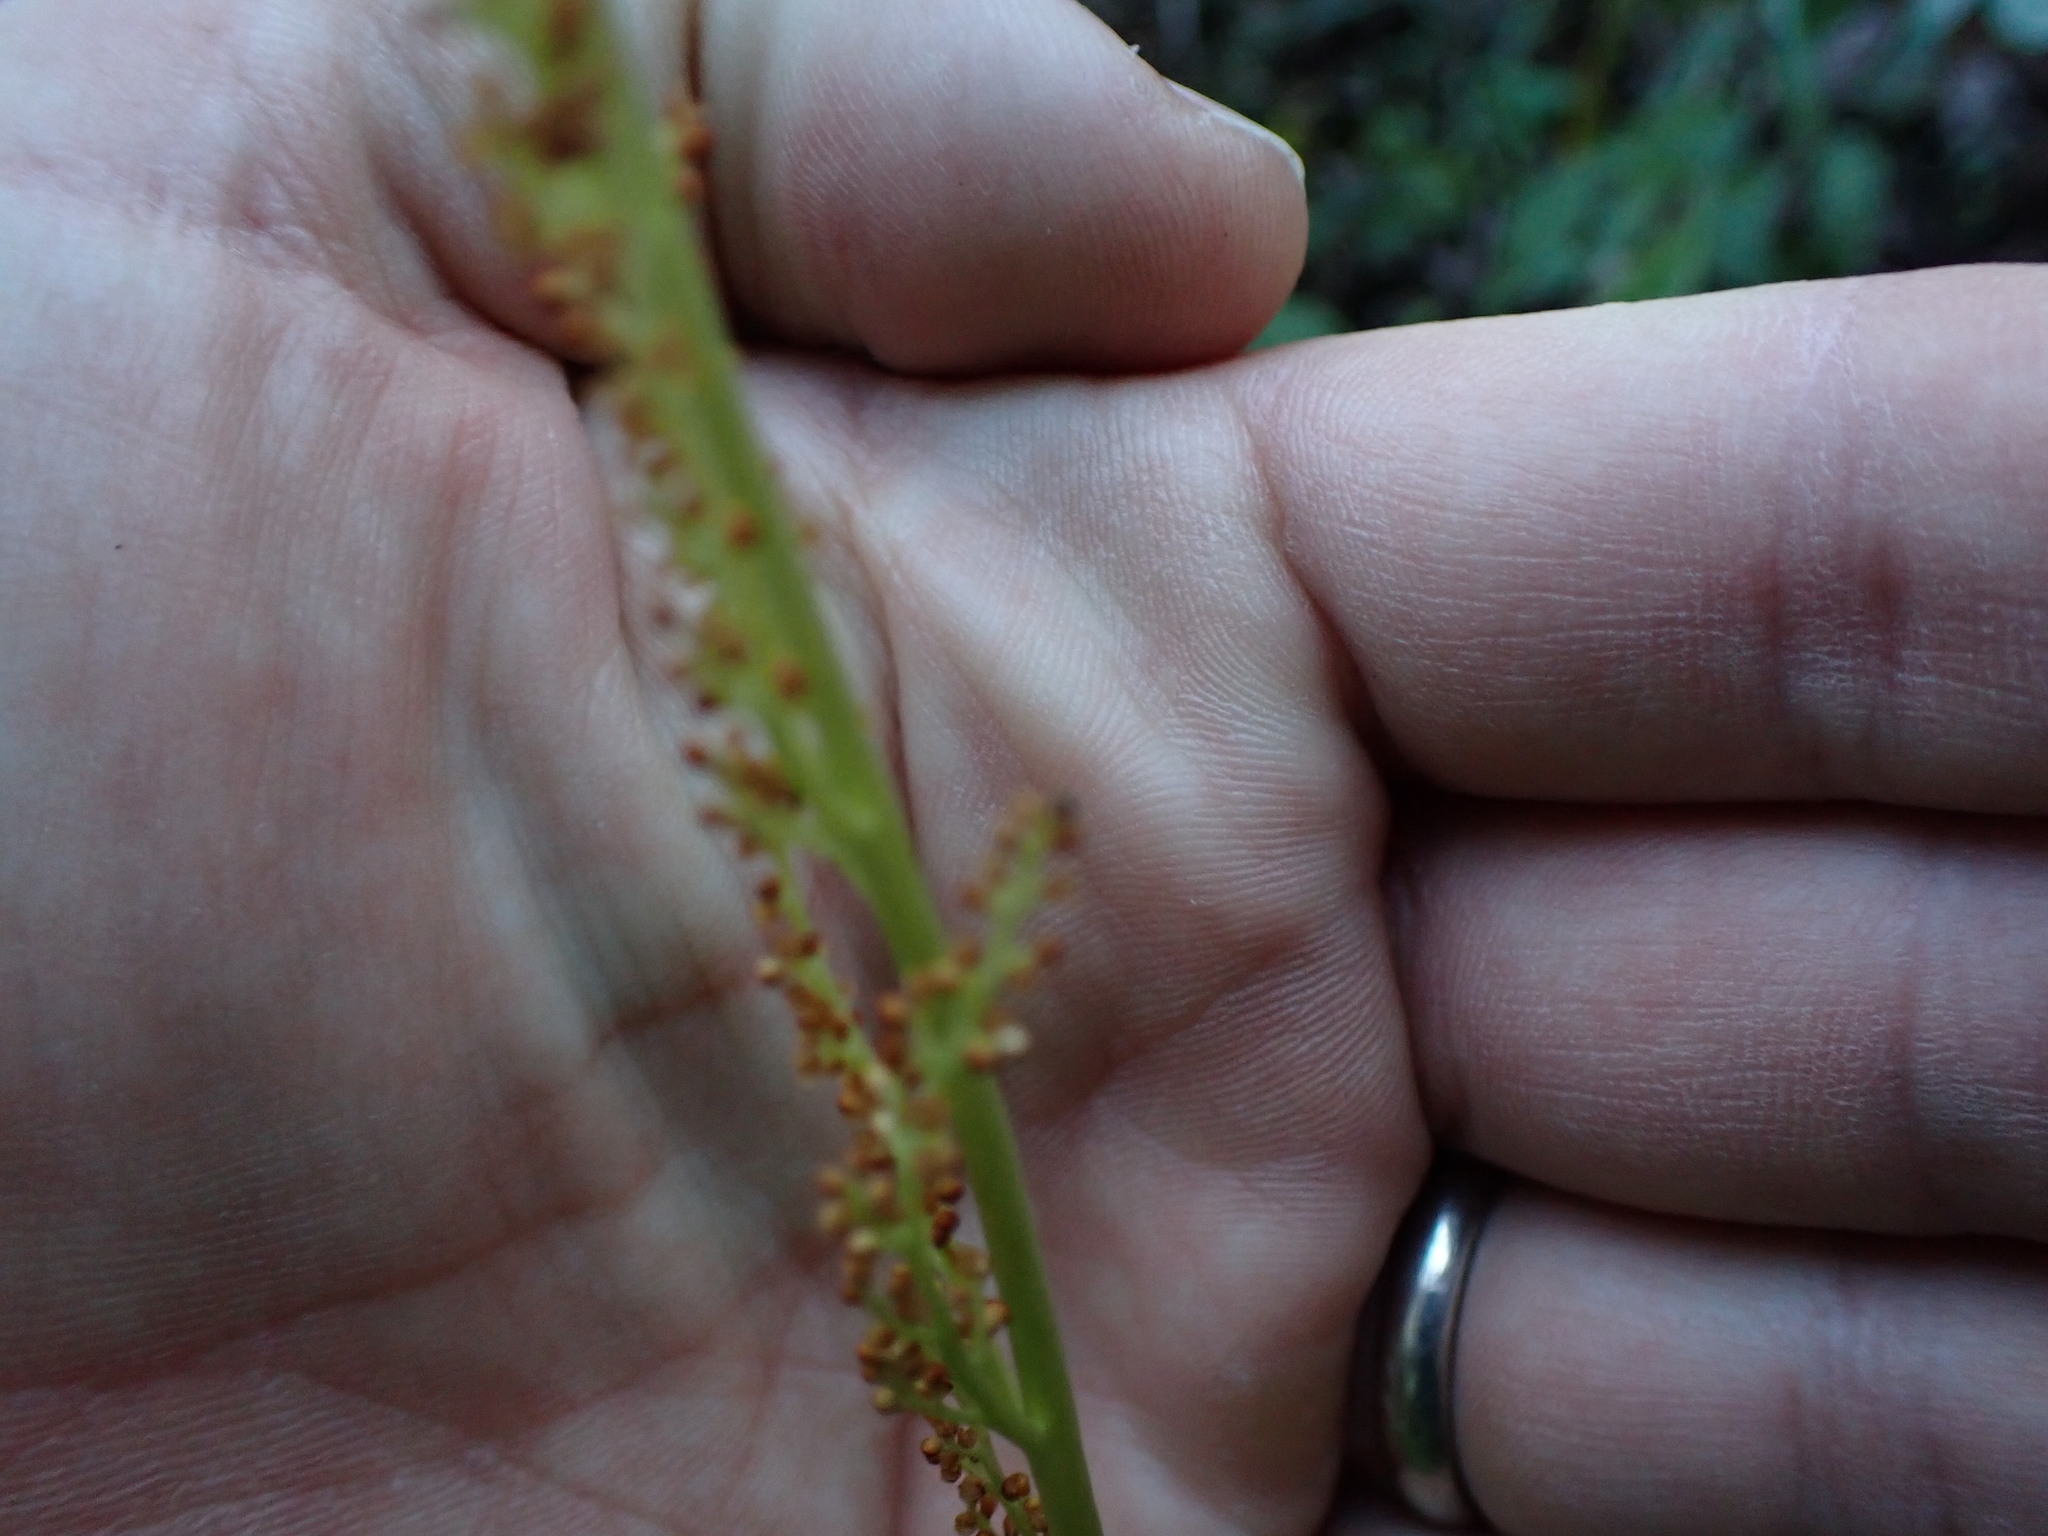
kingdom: Plantae
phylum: Tracheophyta
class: Polypodiopsida
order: Ophioglossales
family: Ophioglossaceae
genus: Botrypus
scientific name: Botrypus virginianus
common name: Common grapefern
